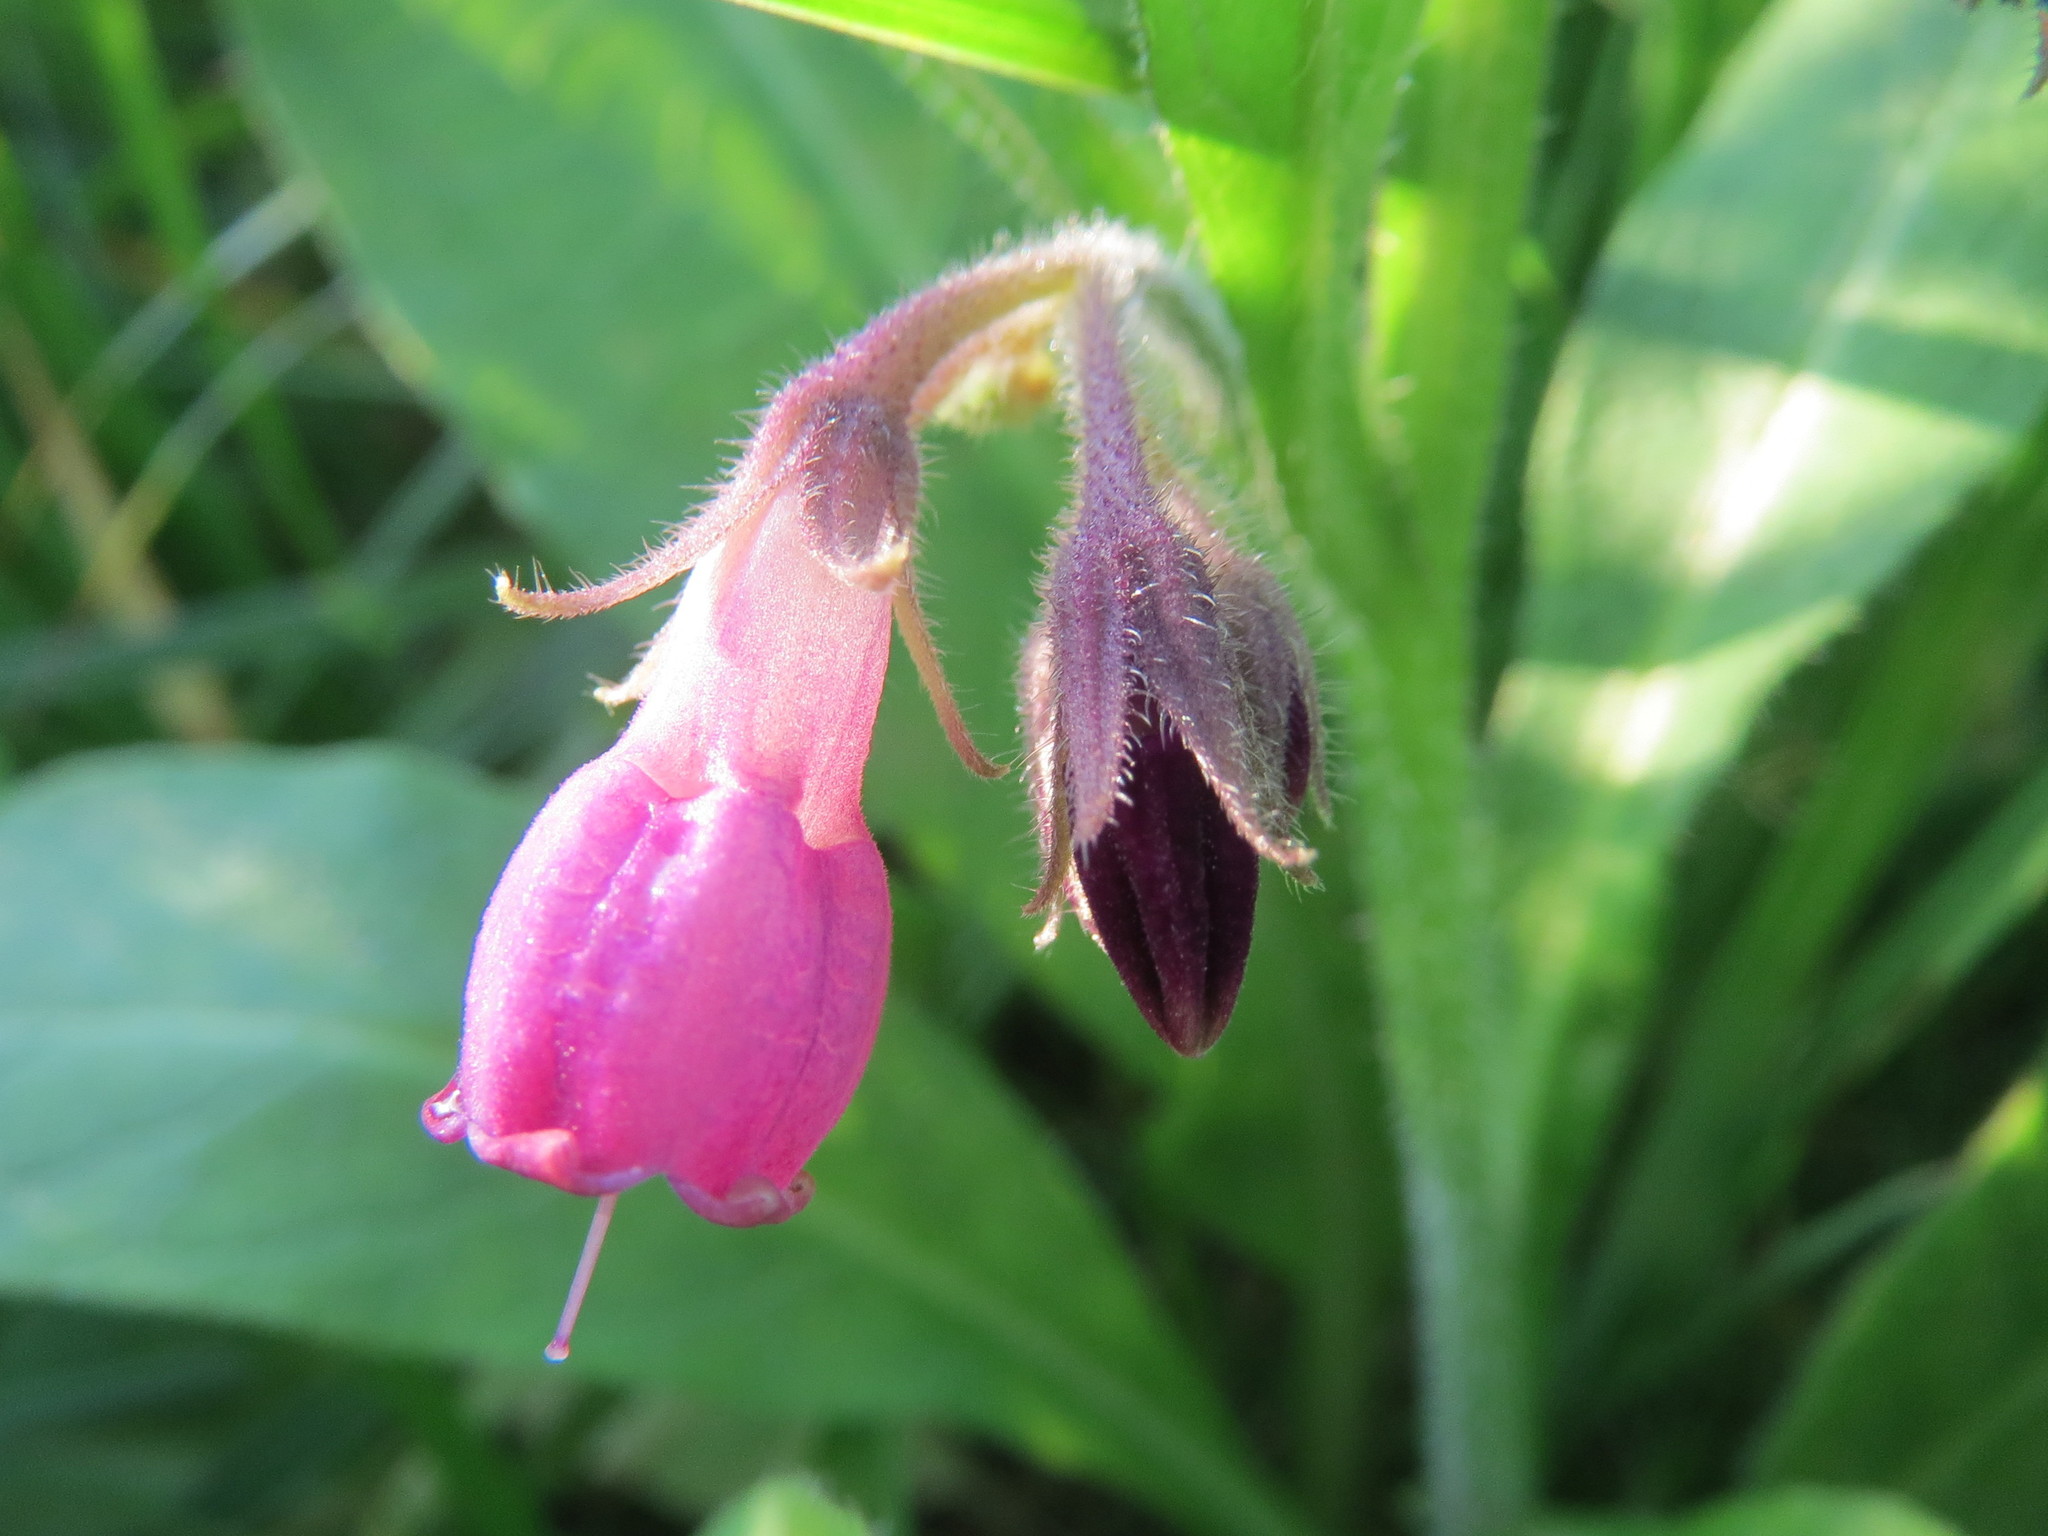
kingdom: Plantae
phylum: Tracheophyta
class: Magnoliopsida
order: Boraginales
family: Boraginaceae
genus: Symphytum
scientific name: Symphytum officinale
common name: Common comfrey
